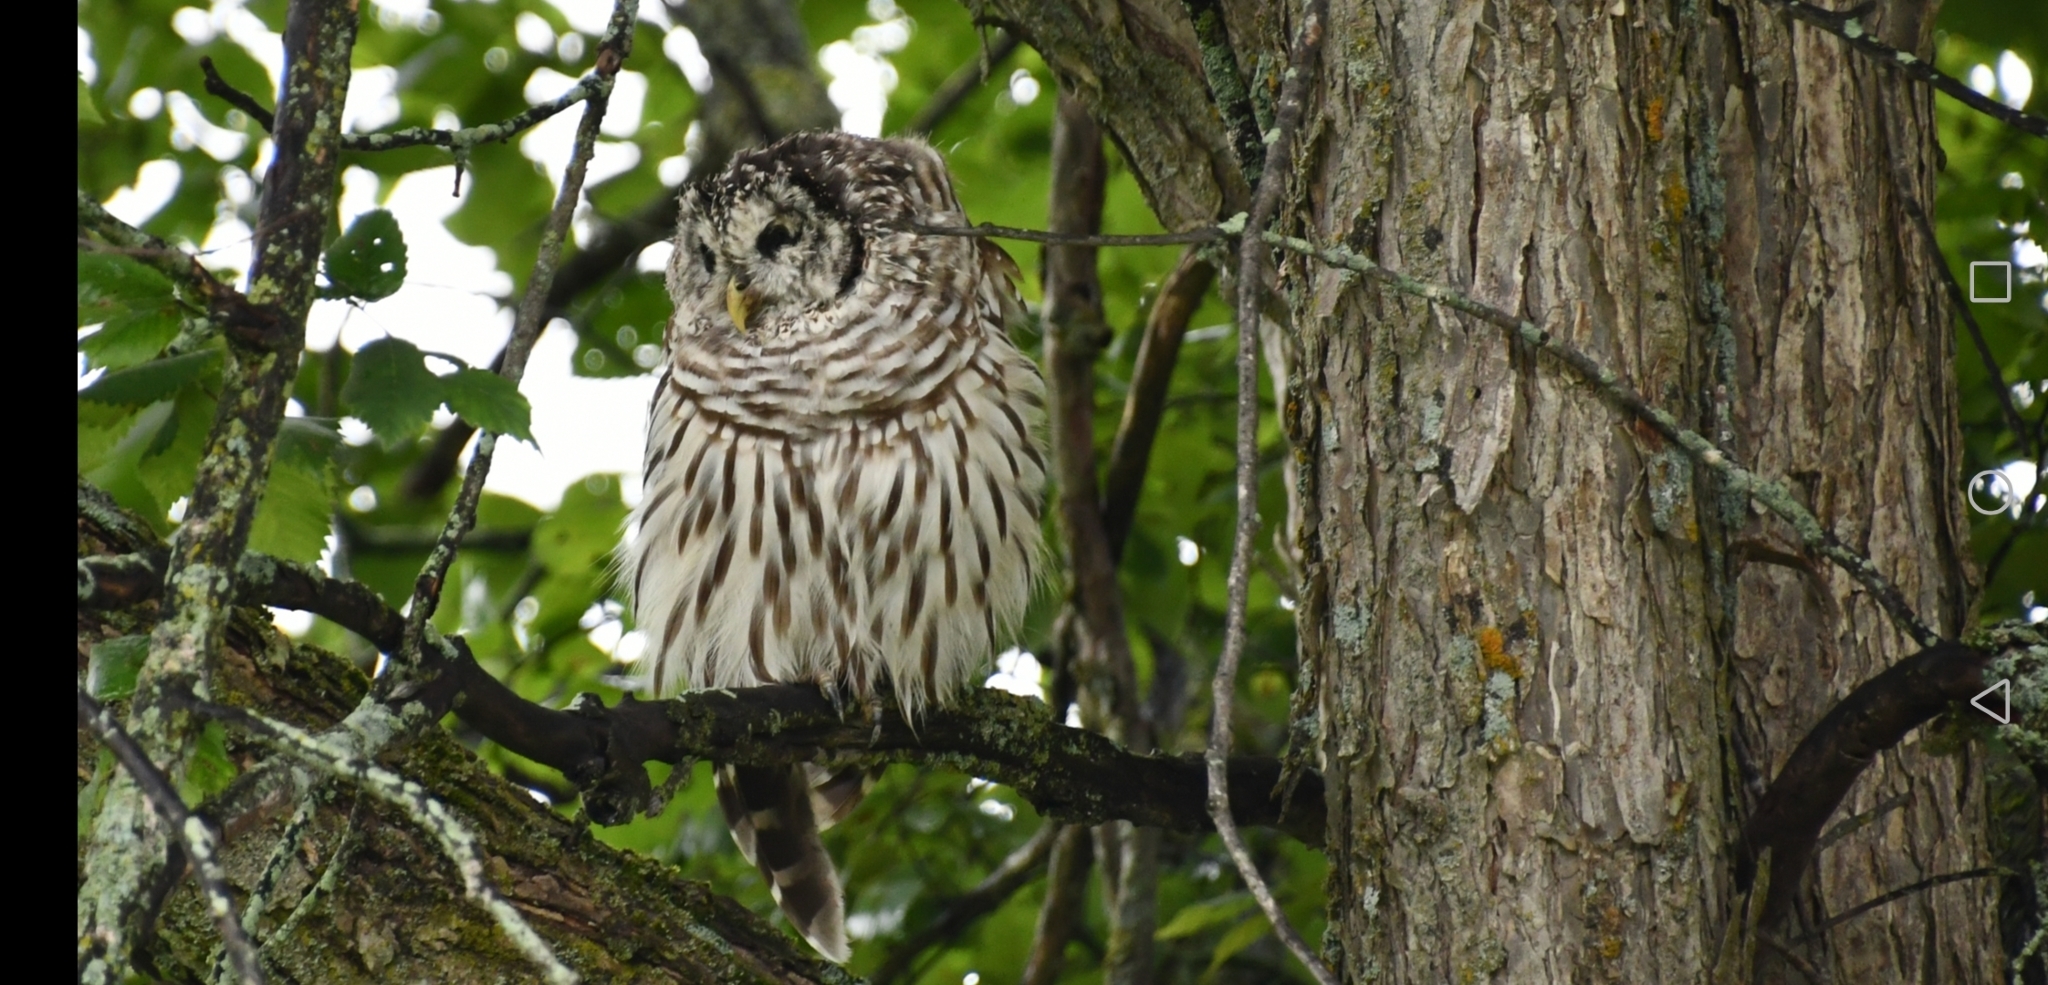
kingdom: Animalia
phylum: Chordata
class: Aves
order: Strigiformes
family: Strigidae
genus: Strix
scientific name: Strix varia
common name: Barred owl
